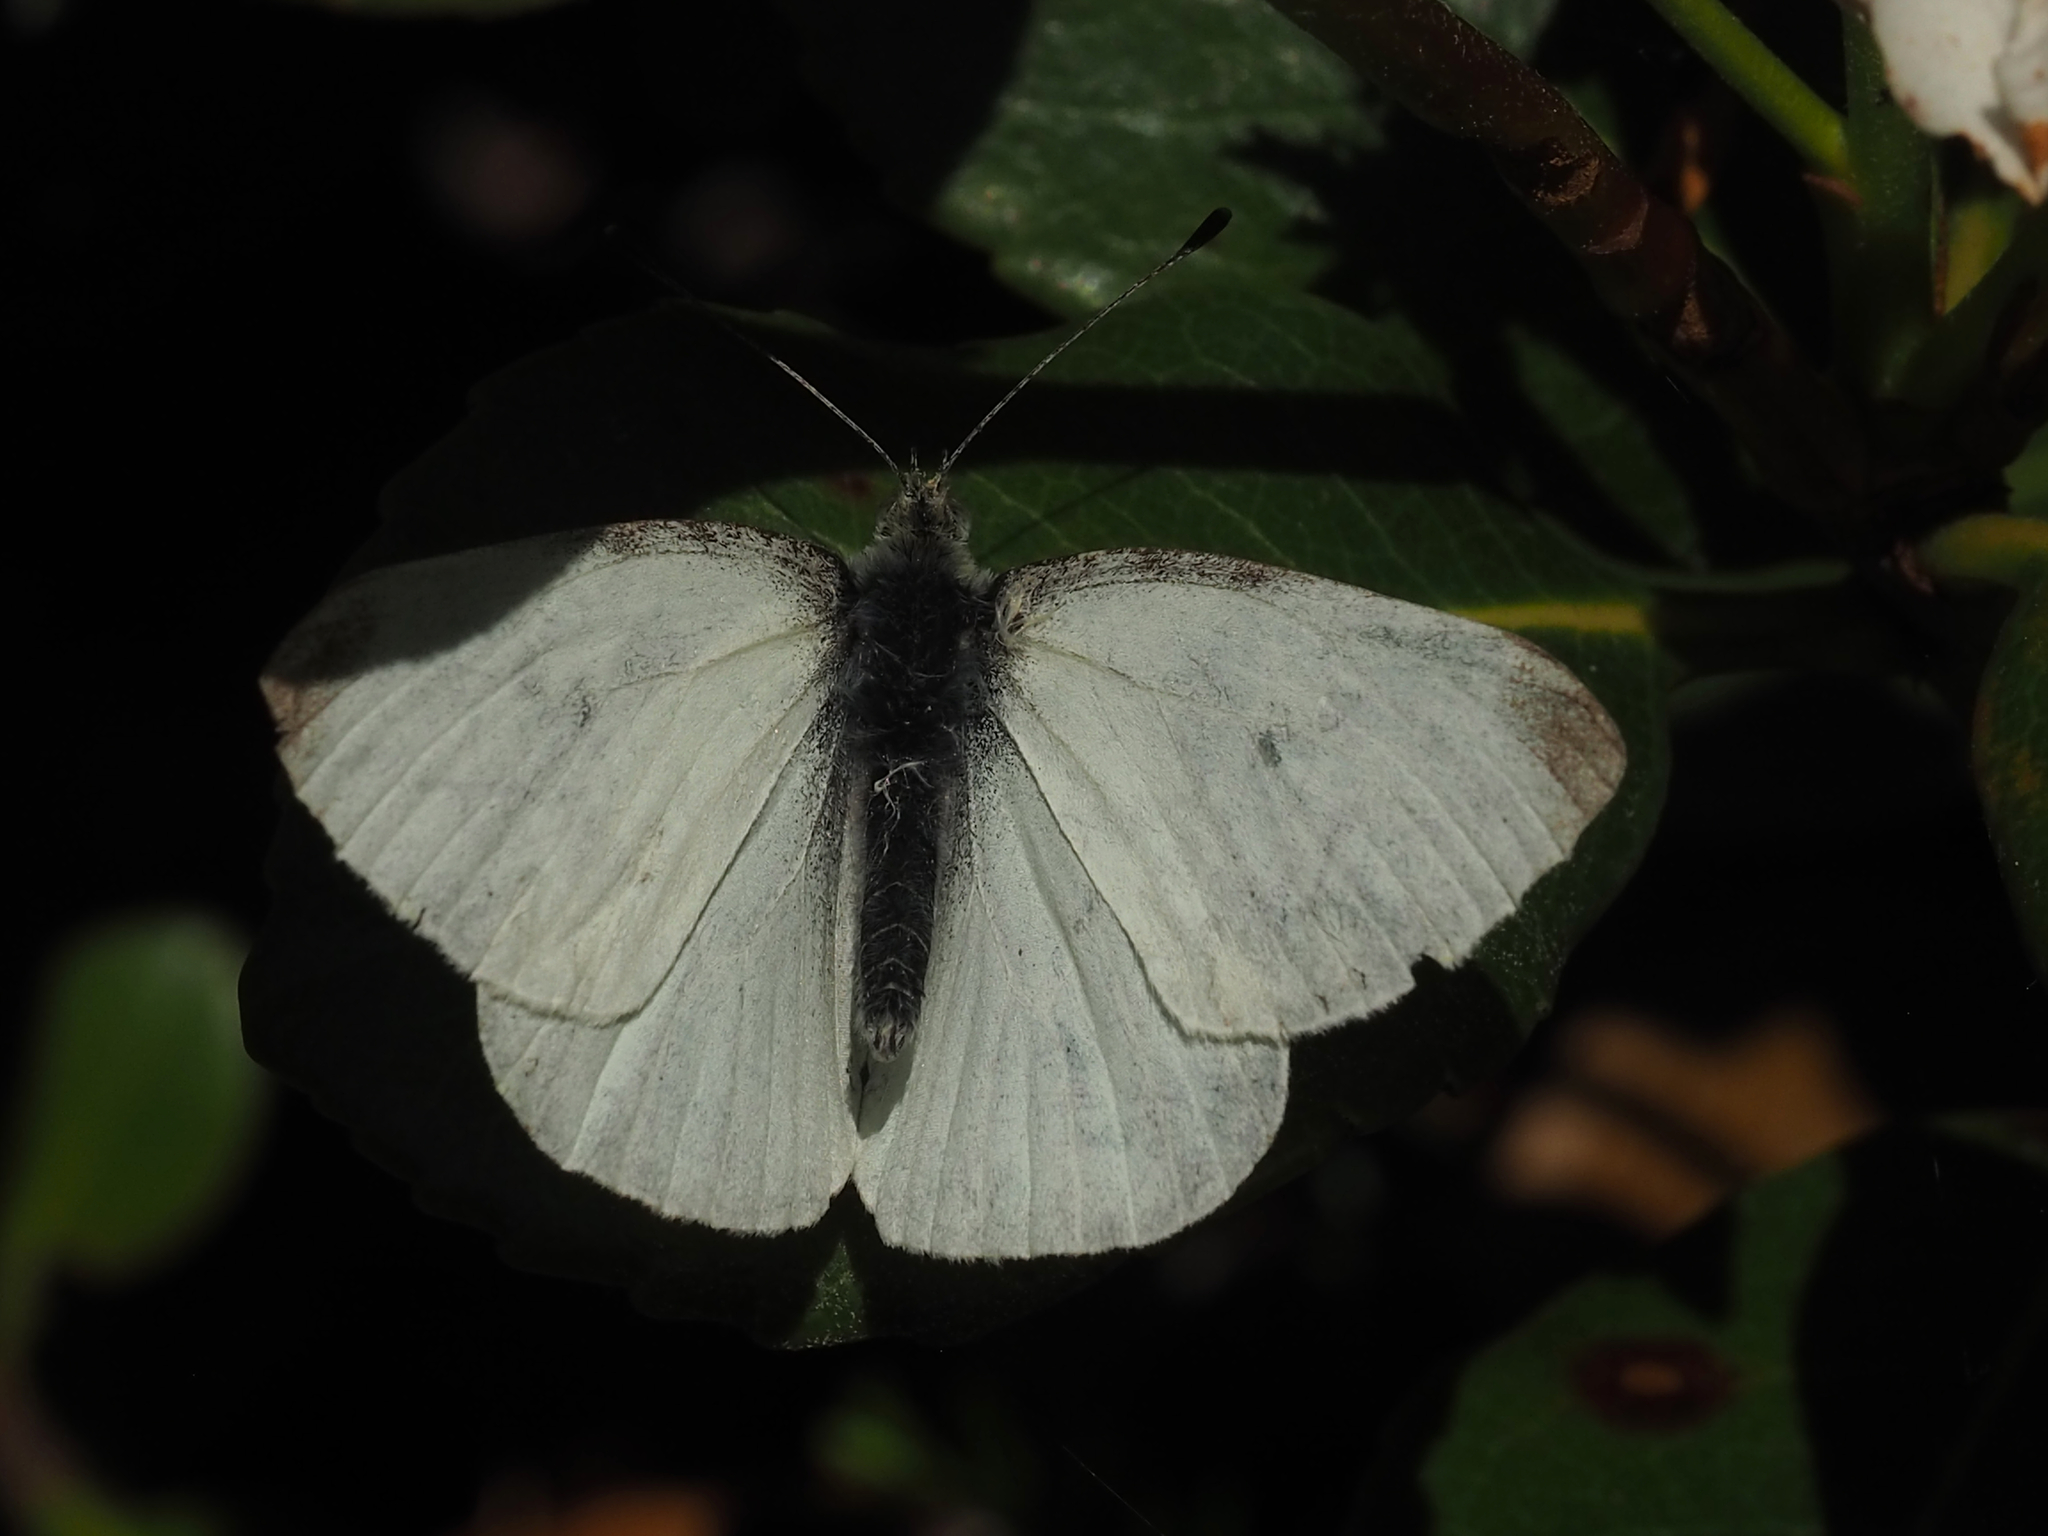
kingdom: Animalia
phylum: Arthropoda
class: Insecta
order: Lepidoptera
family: Pieridae
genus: Pieris
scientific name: Pieris rapae
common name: Small white
